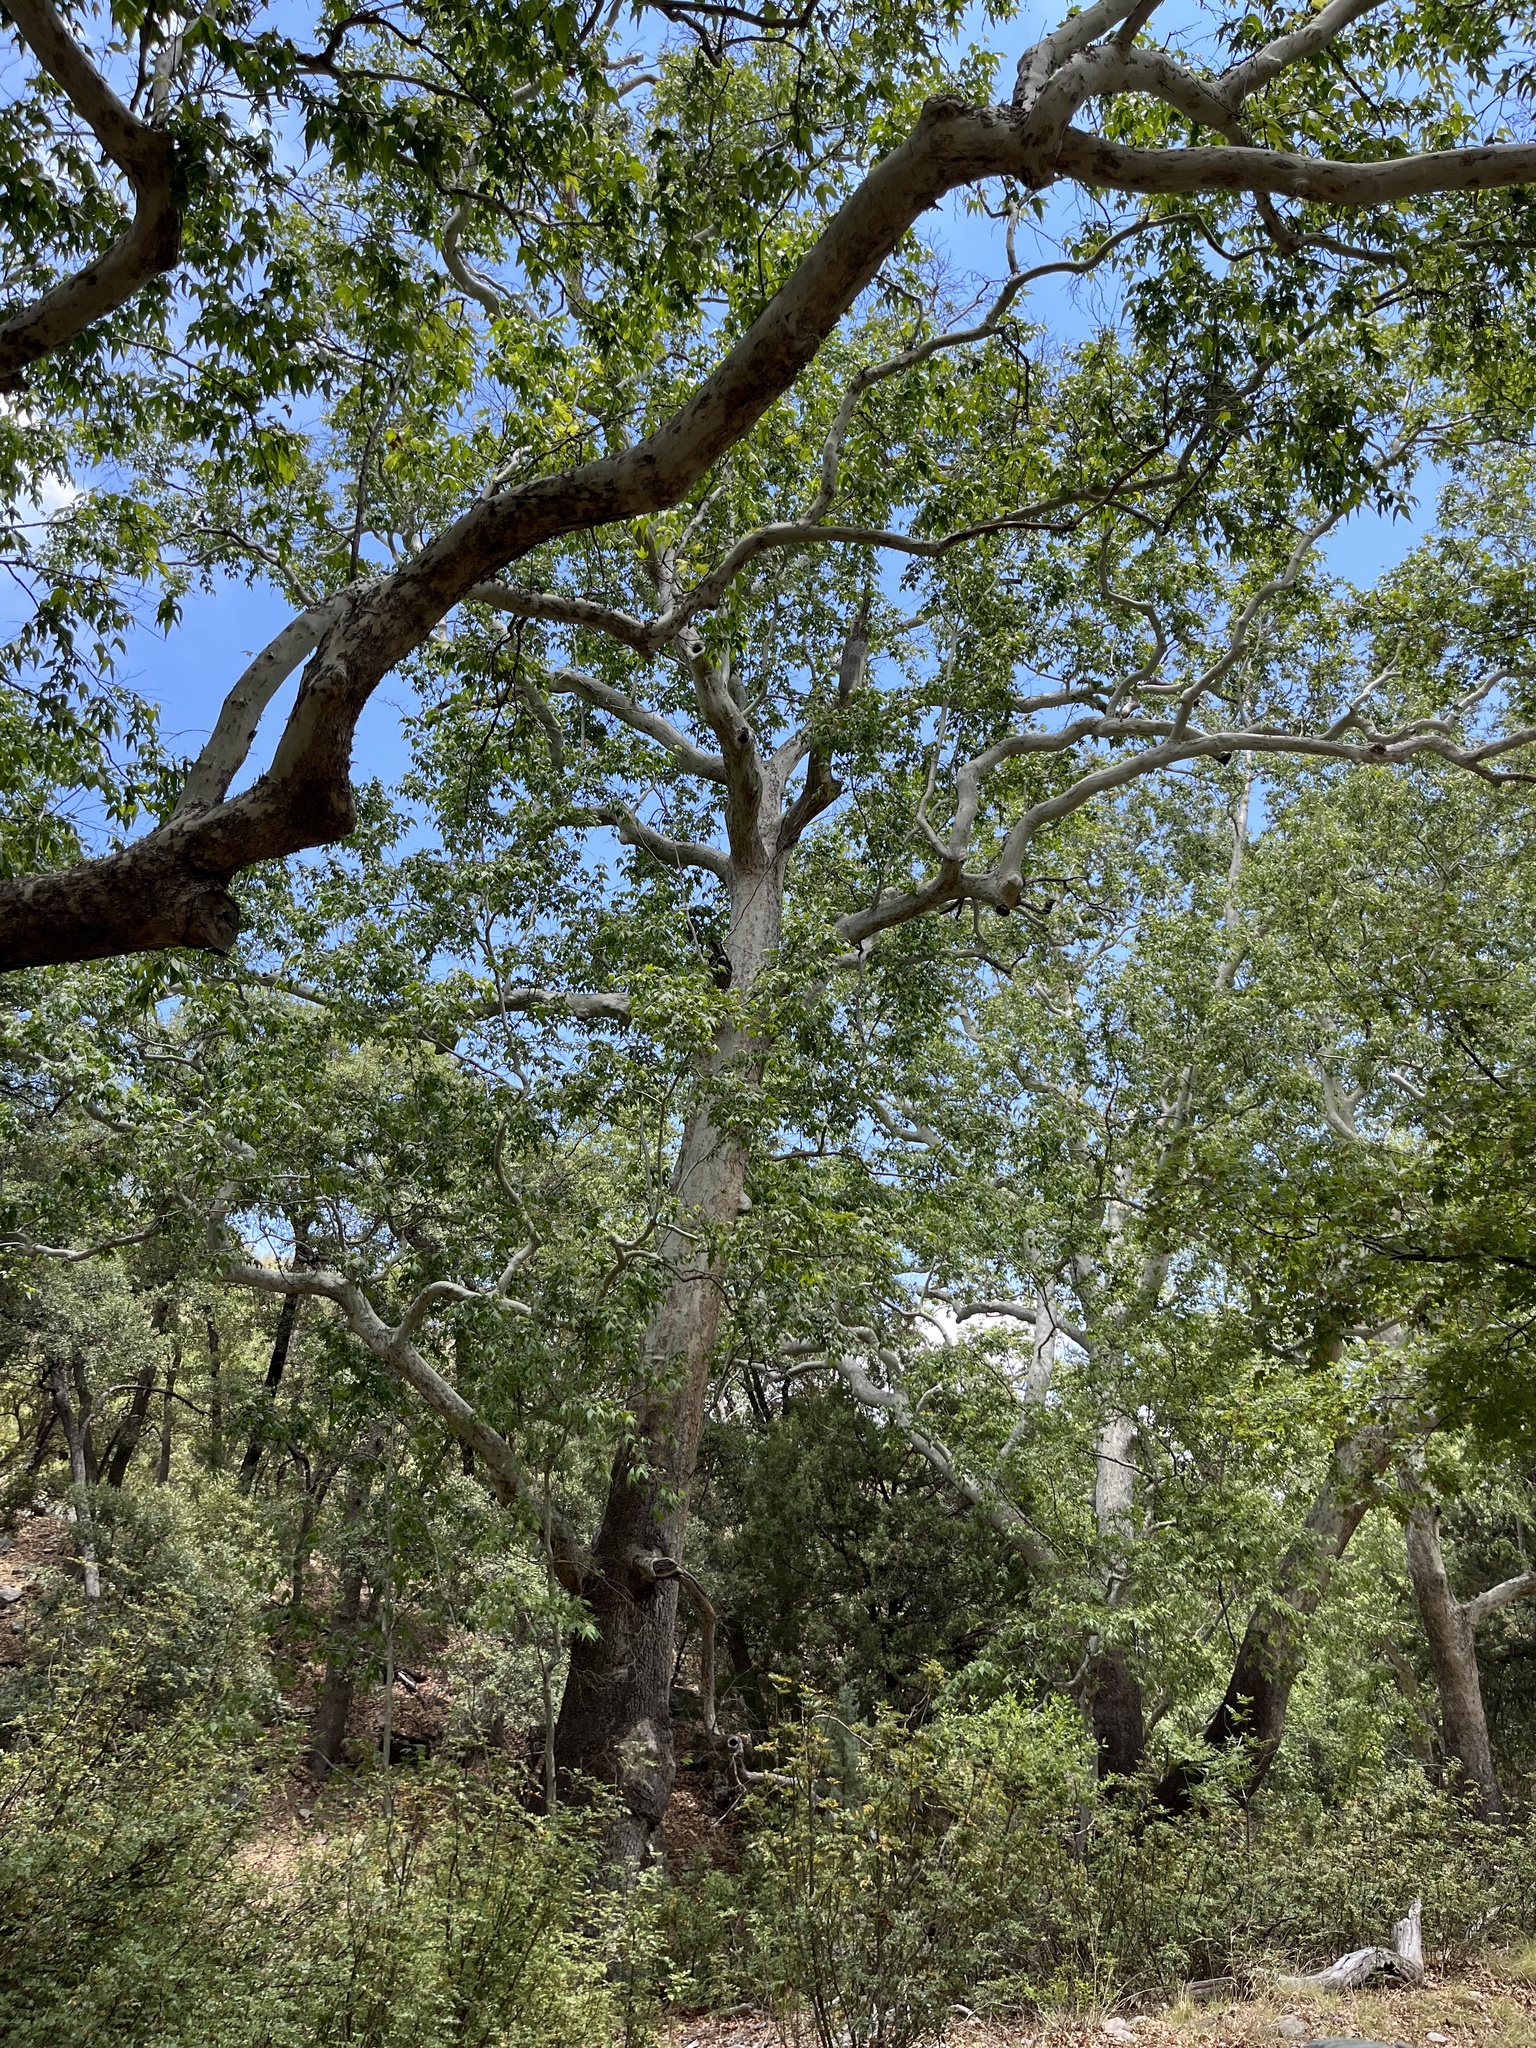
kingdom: Plantae
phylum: Tracheophyta
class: Magnoliopsida
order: Proteales
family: Platanaceae
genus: Platanus
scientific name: Platanus wrightii
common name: Arizona sycamore
